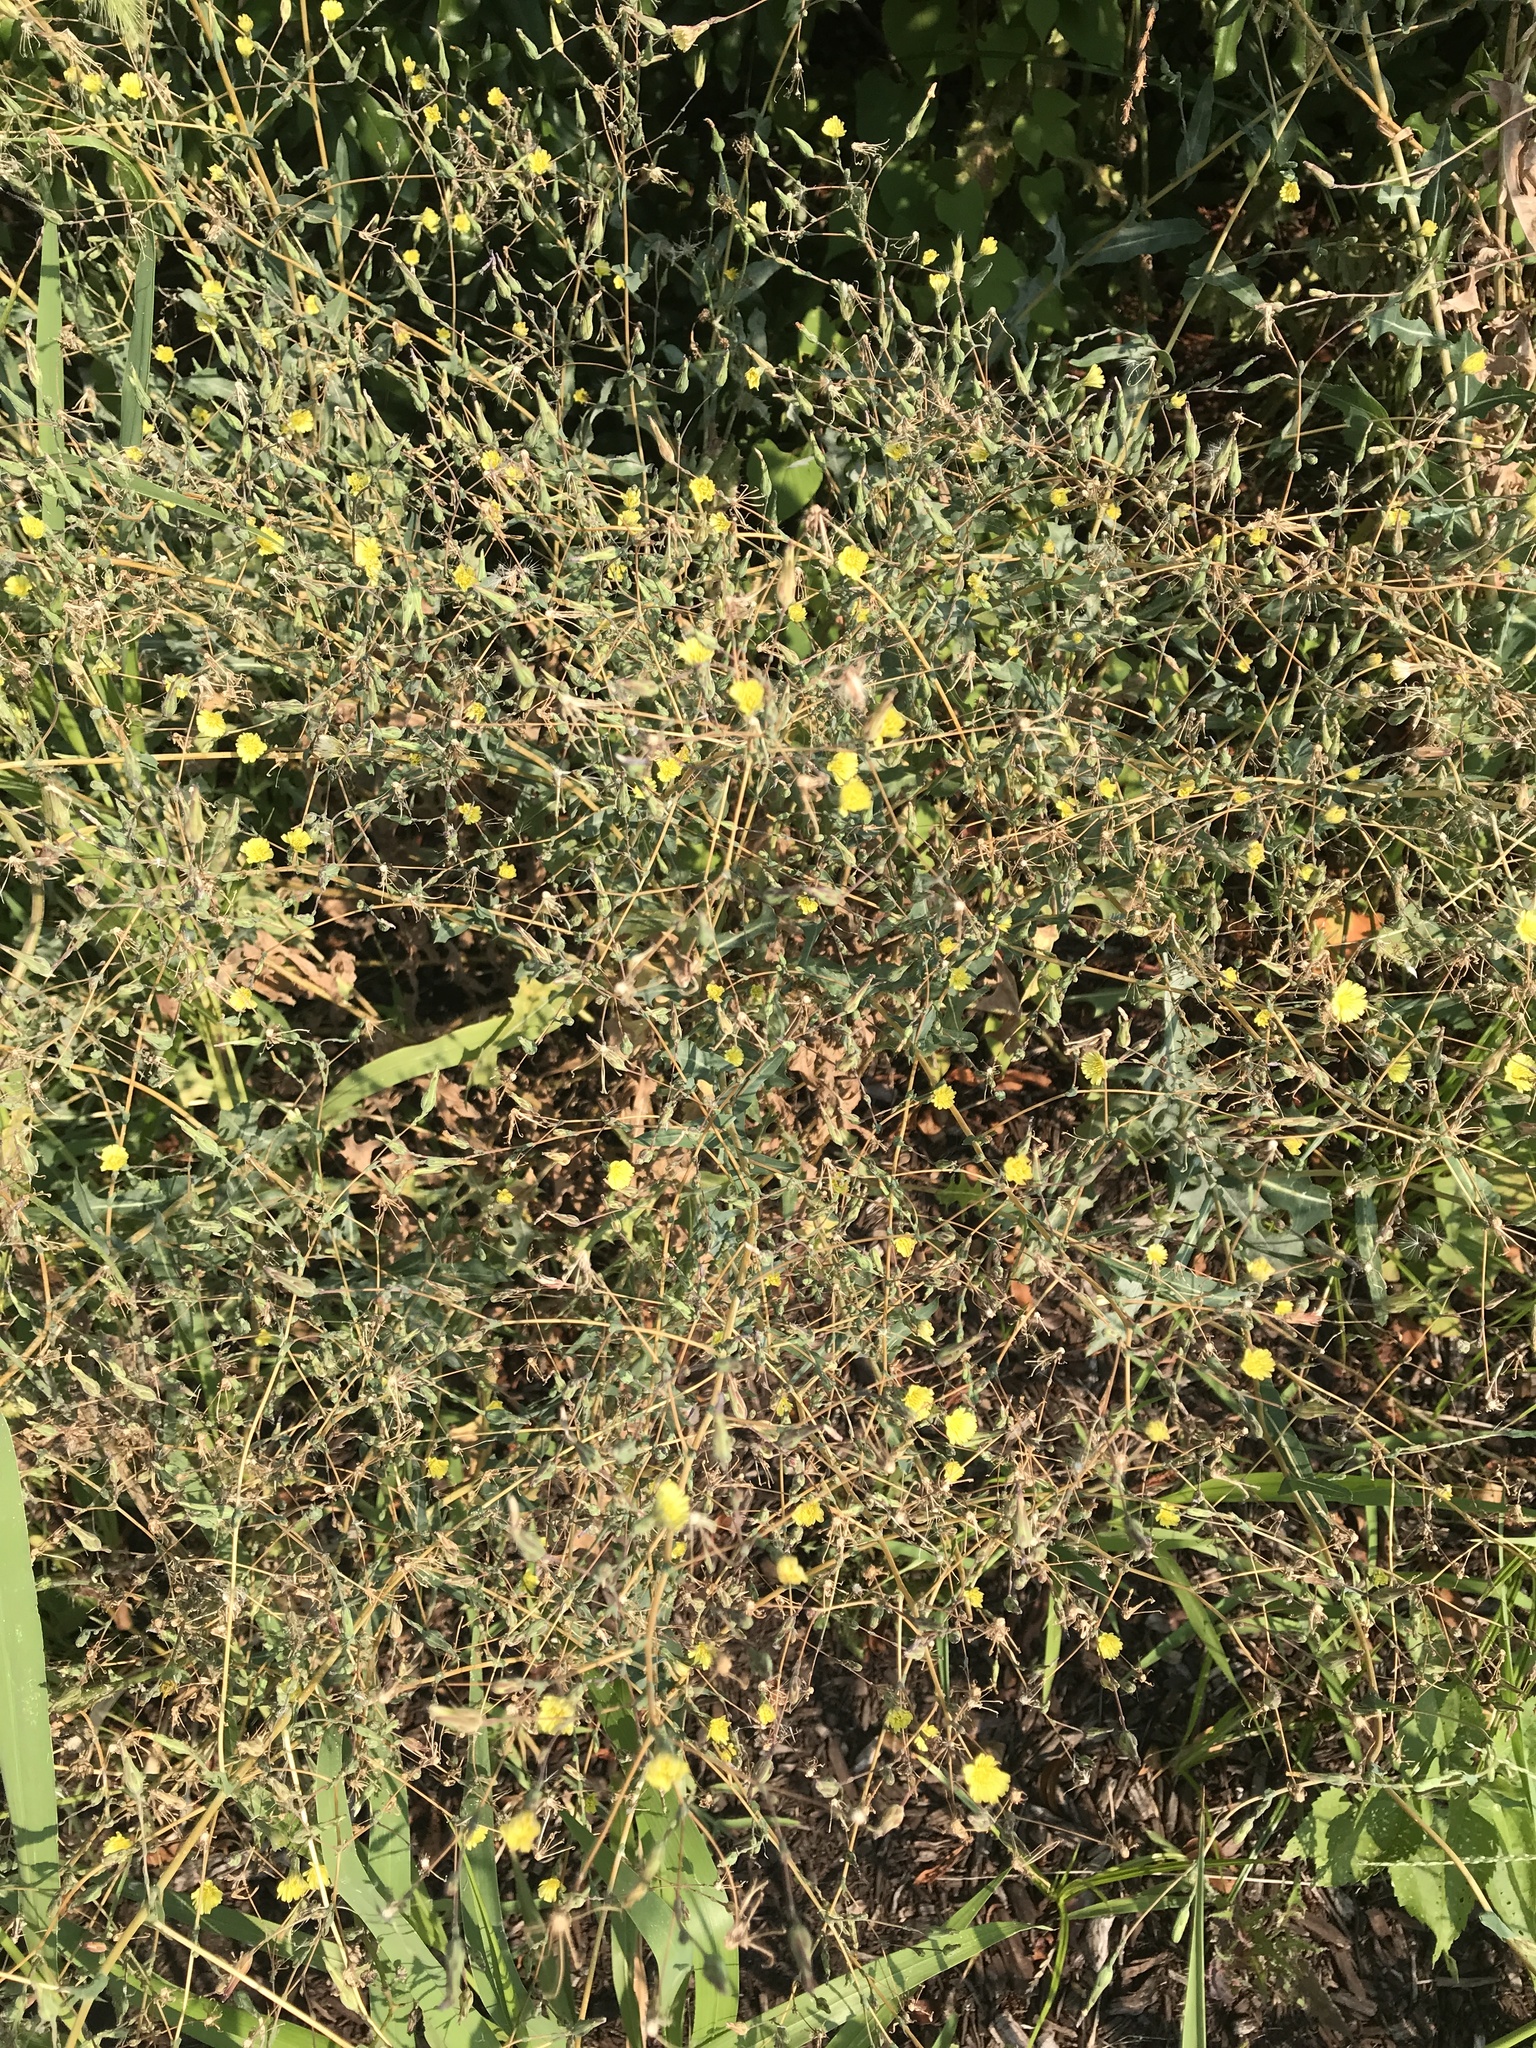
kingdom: Plantae
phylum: Tracheophyta
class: Magnoliopsida
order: Asterales
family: Asteraceae
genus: Lactuca
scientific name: Lactuca serriola
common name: Prickly lettuce
